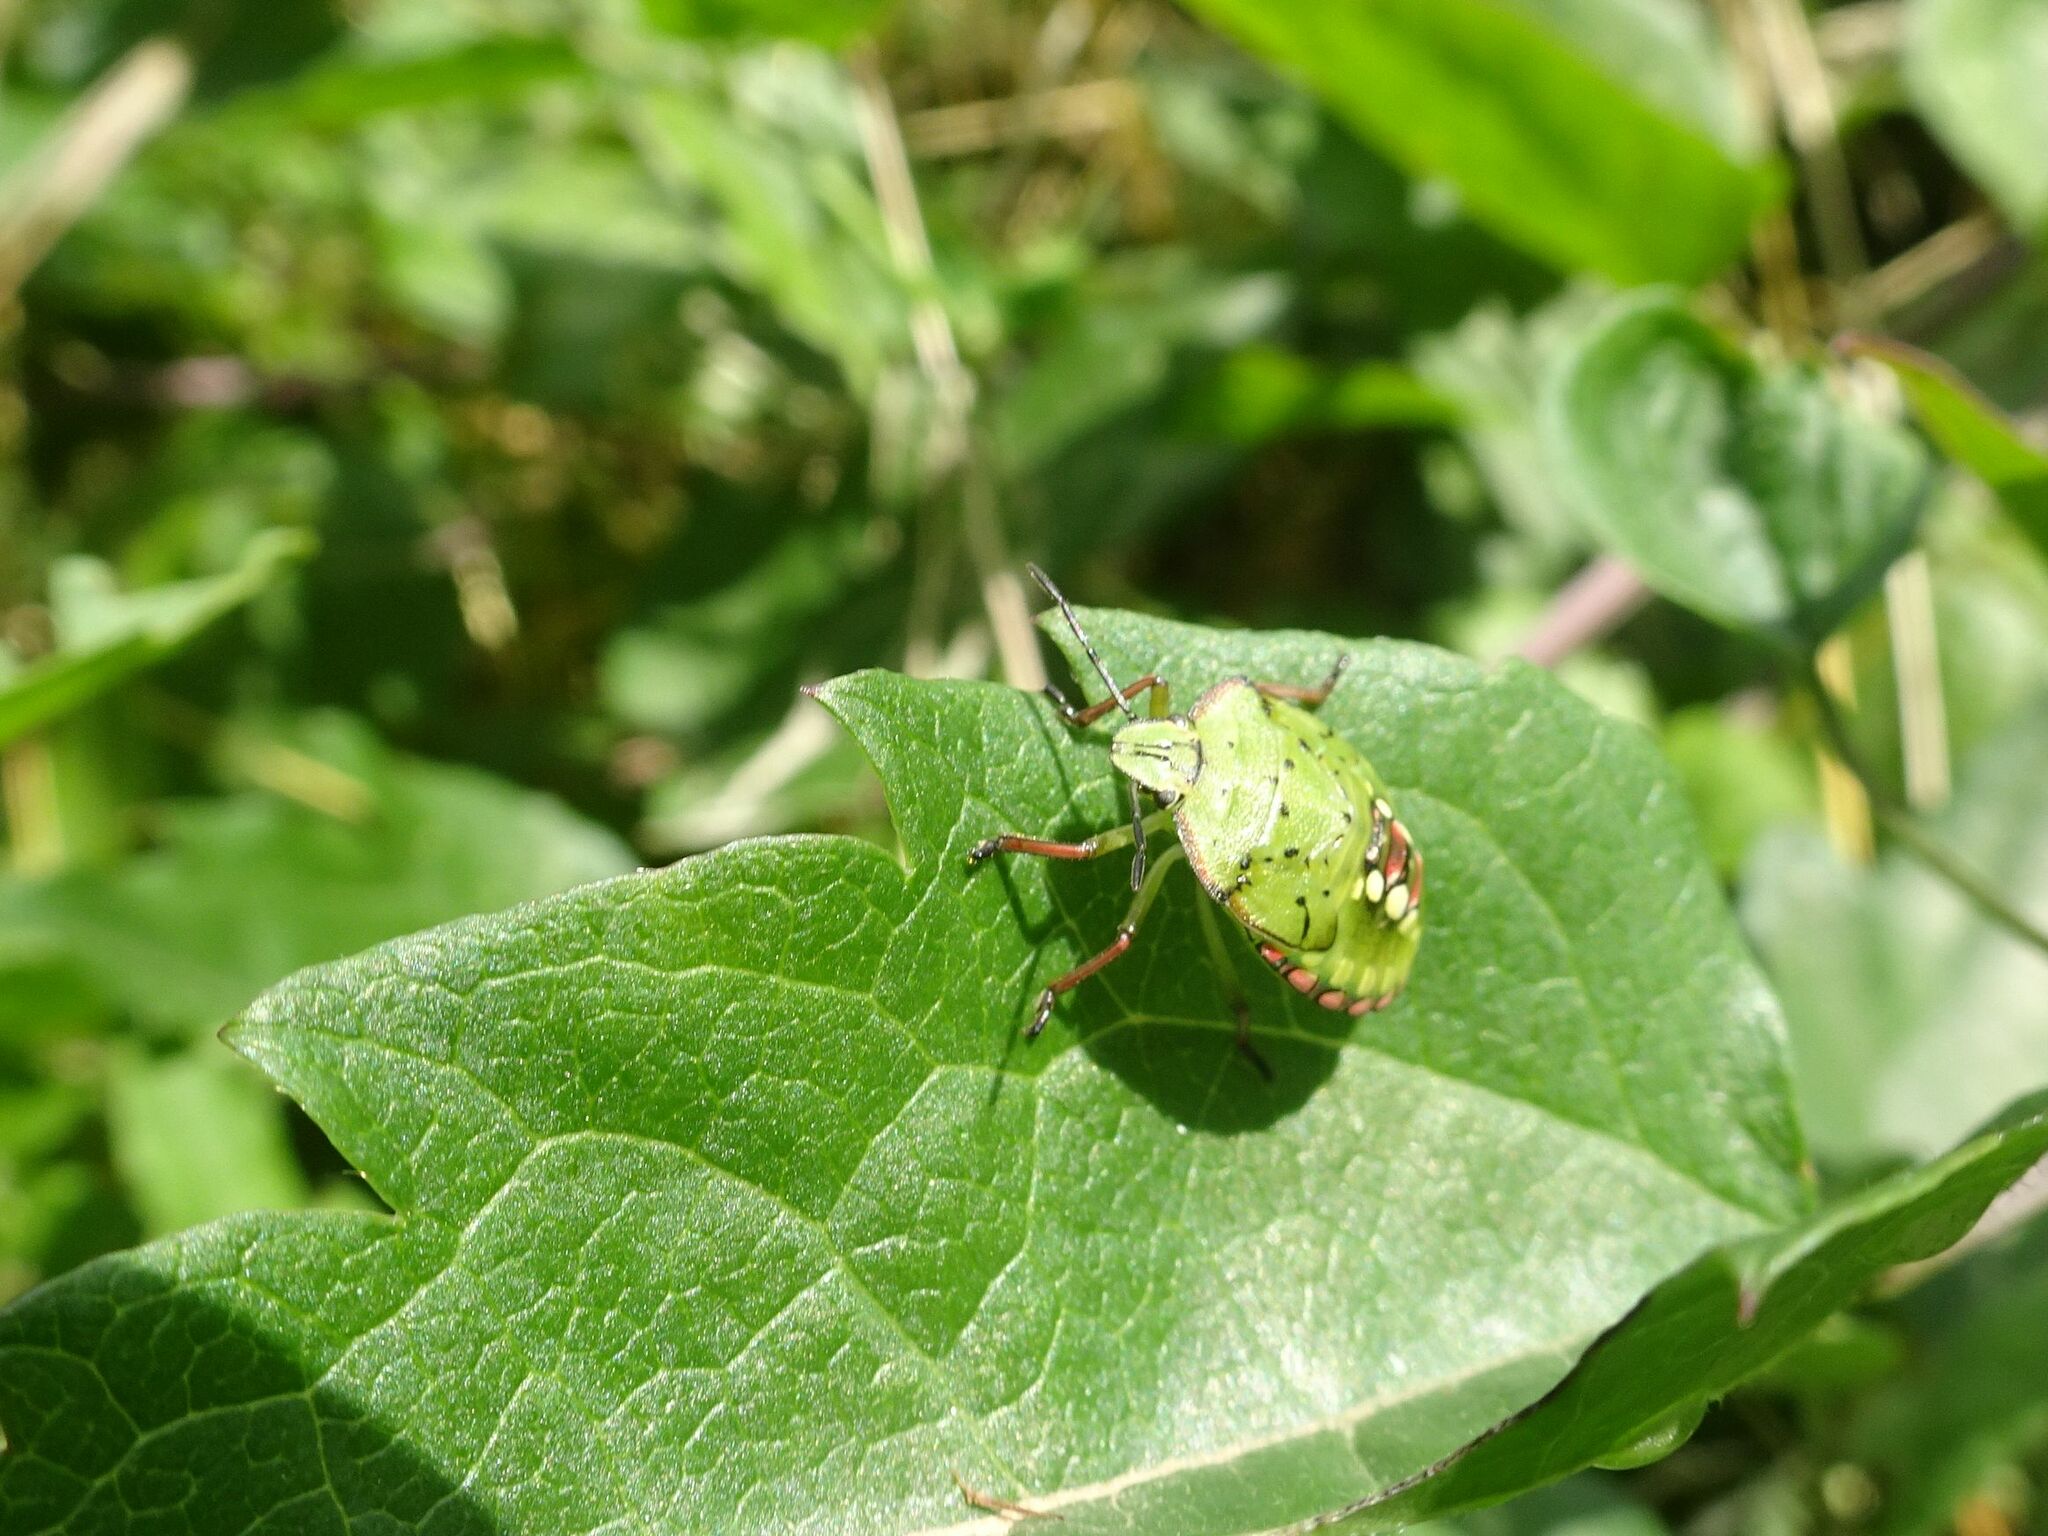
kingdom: Animalia
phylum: Arthropoda
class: Insecta
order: Hemiptera
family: Pentatomidae
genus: Nezara
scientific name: Nezara viridula
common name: Southern green stink bug
